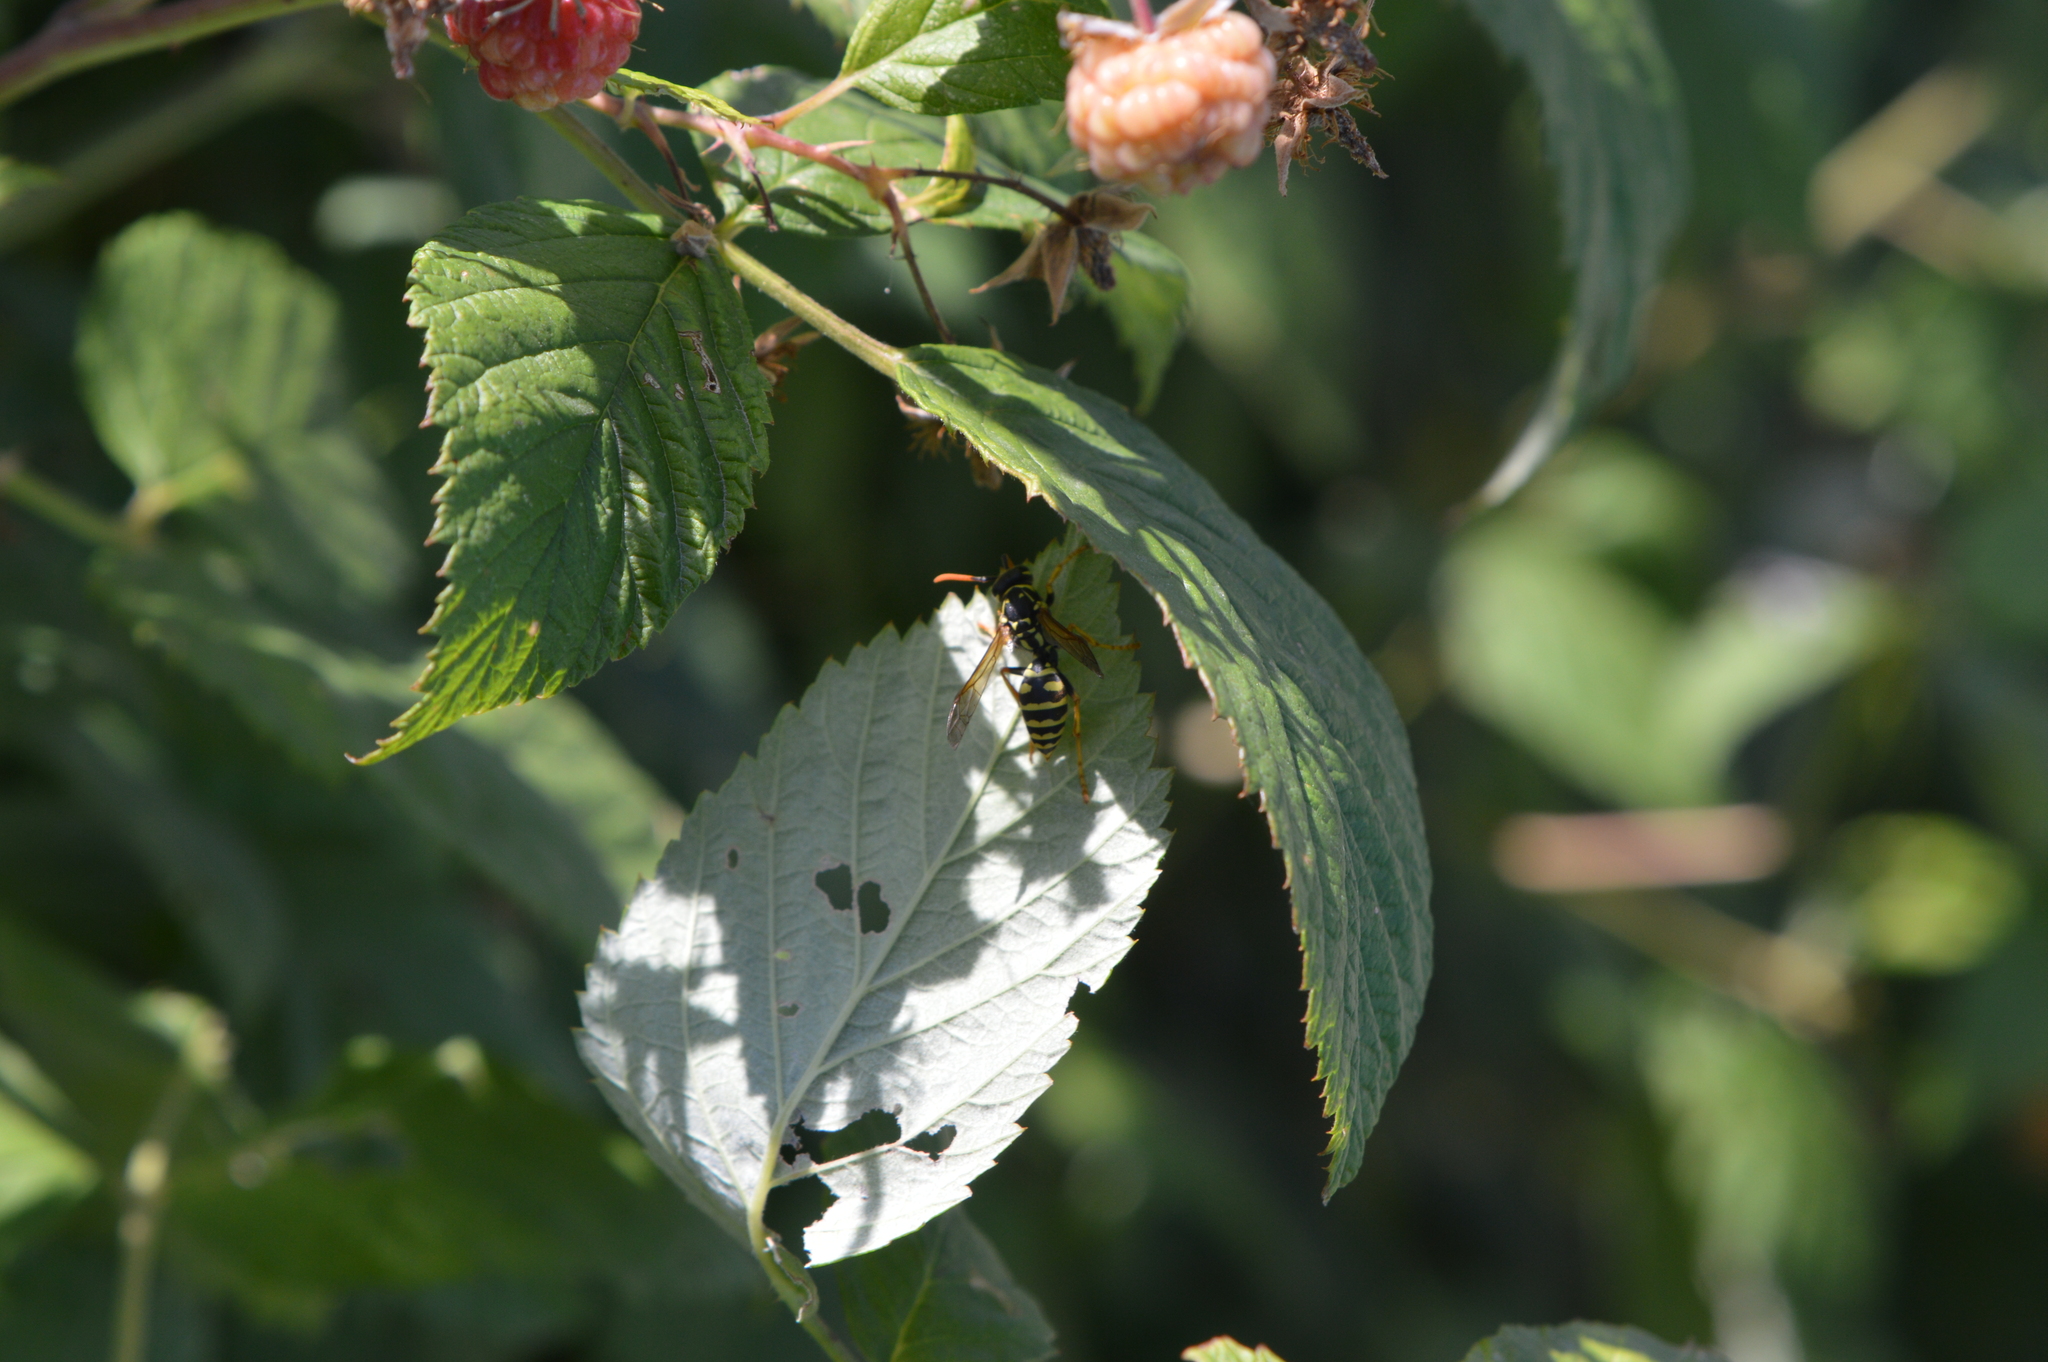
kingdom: Animalia
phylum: Arthropoda
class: Insecta
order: Hymenoptera
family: Eumenidae
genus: Polistes
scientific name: Polistes dominula
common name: Paper wasp
